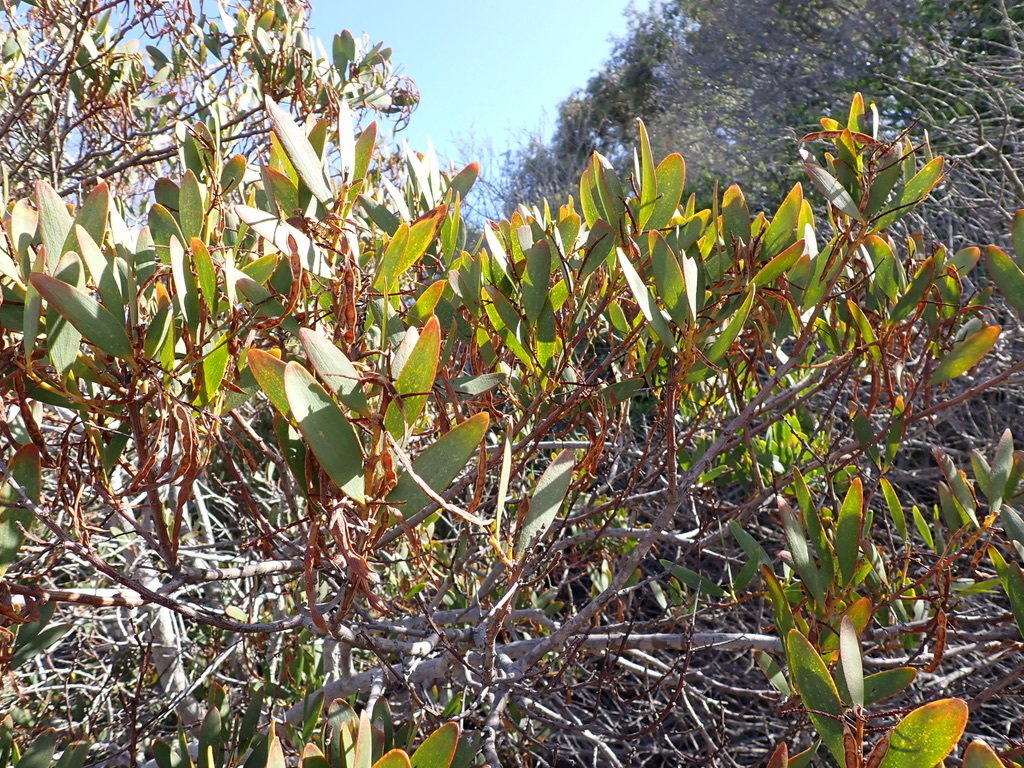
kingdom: Plantae
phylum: Tracheophyta
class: Magnoliopsida
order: Fabales
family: Fabaceae
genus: Acacia
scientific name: Acacia longifolia
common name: Sydney golden wattle
